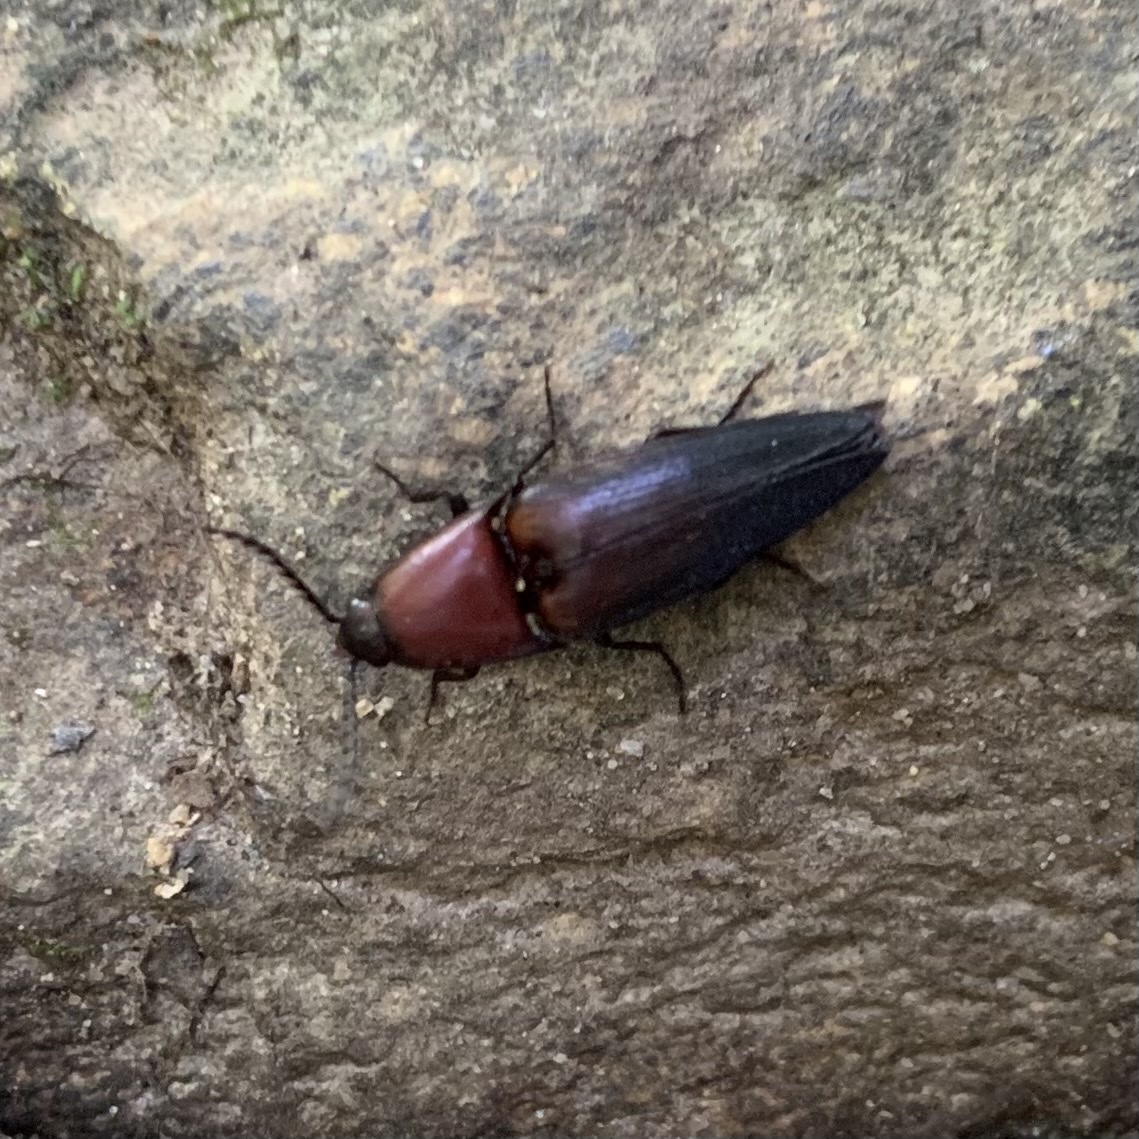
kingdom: Animalia
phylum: Arthropoda
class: Insecta
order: Coleoptera
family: Elateridae
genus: Parallelostethus
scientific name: Parallelostethus attenuatus
